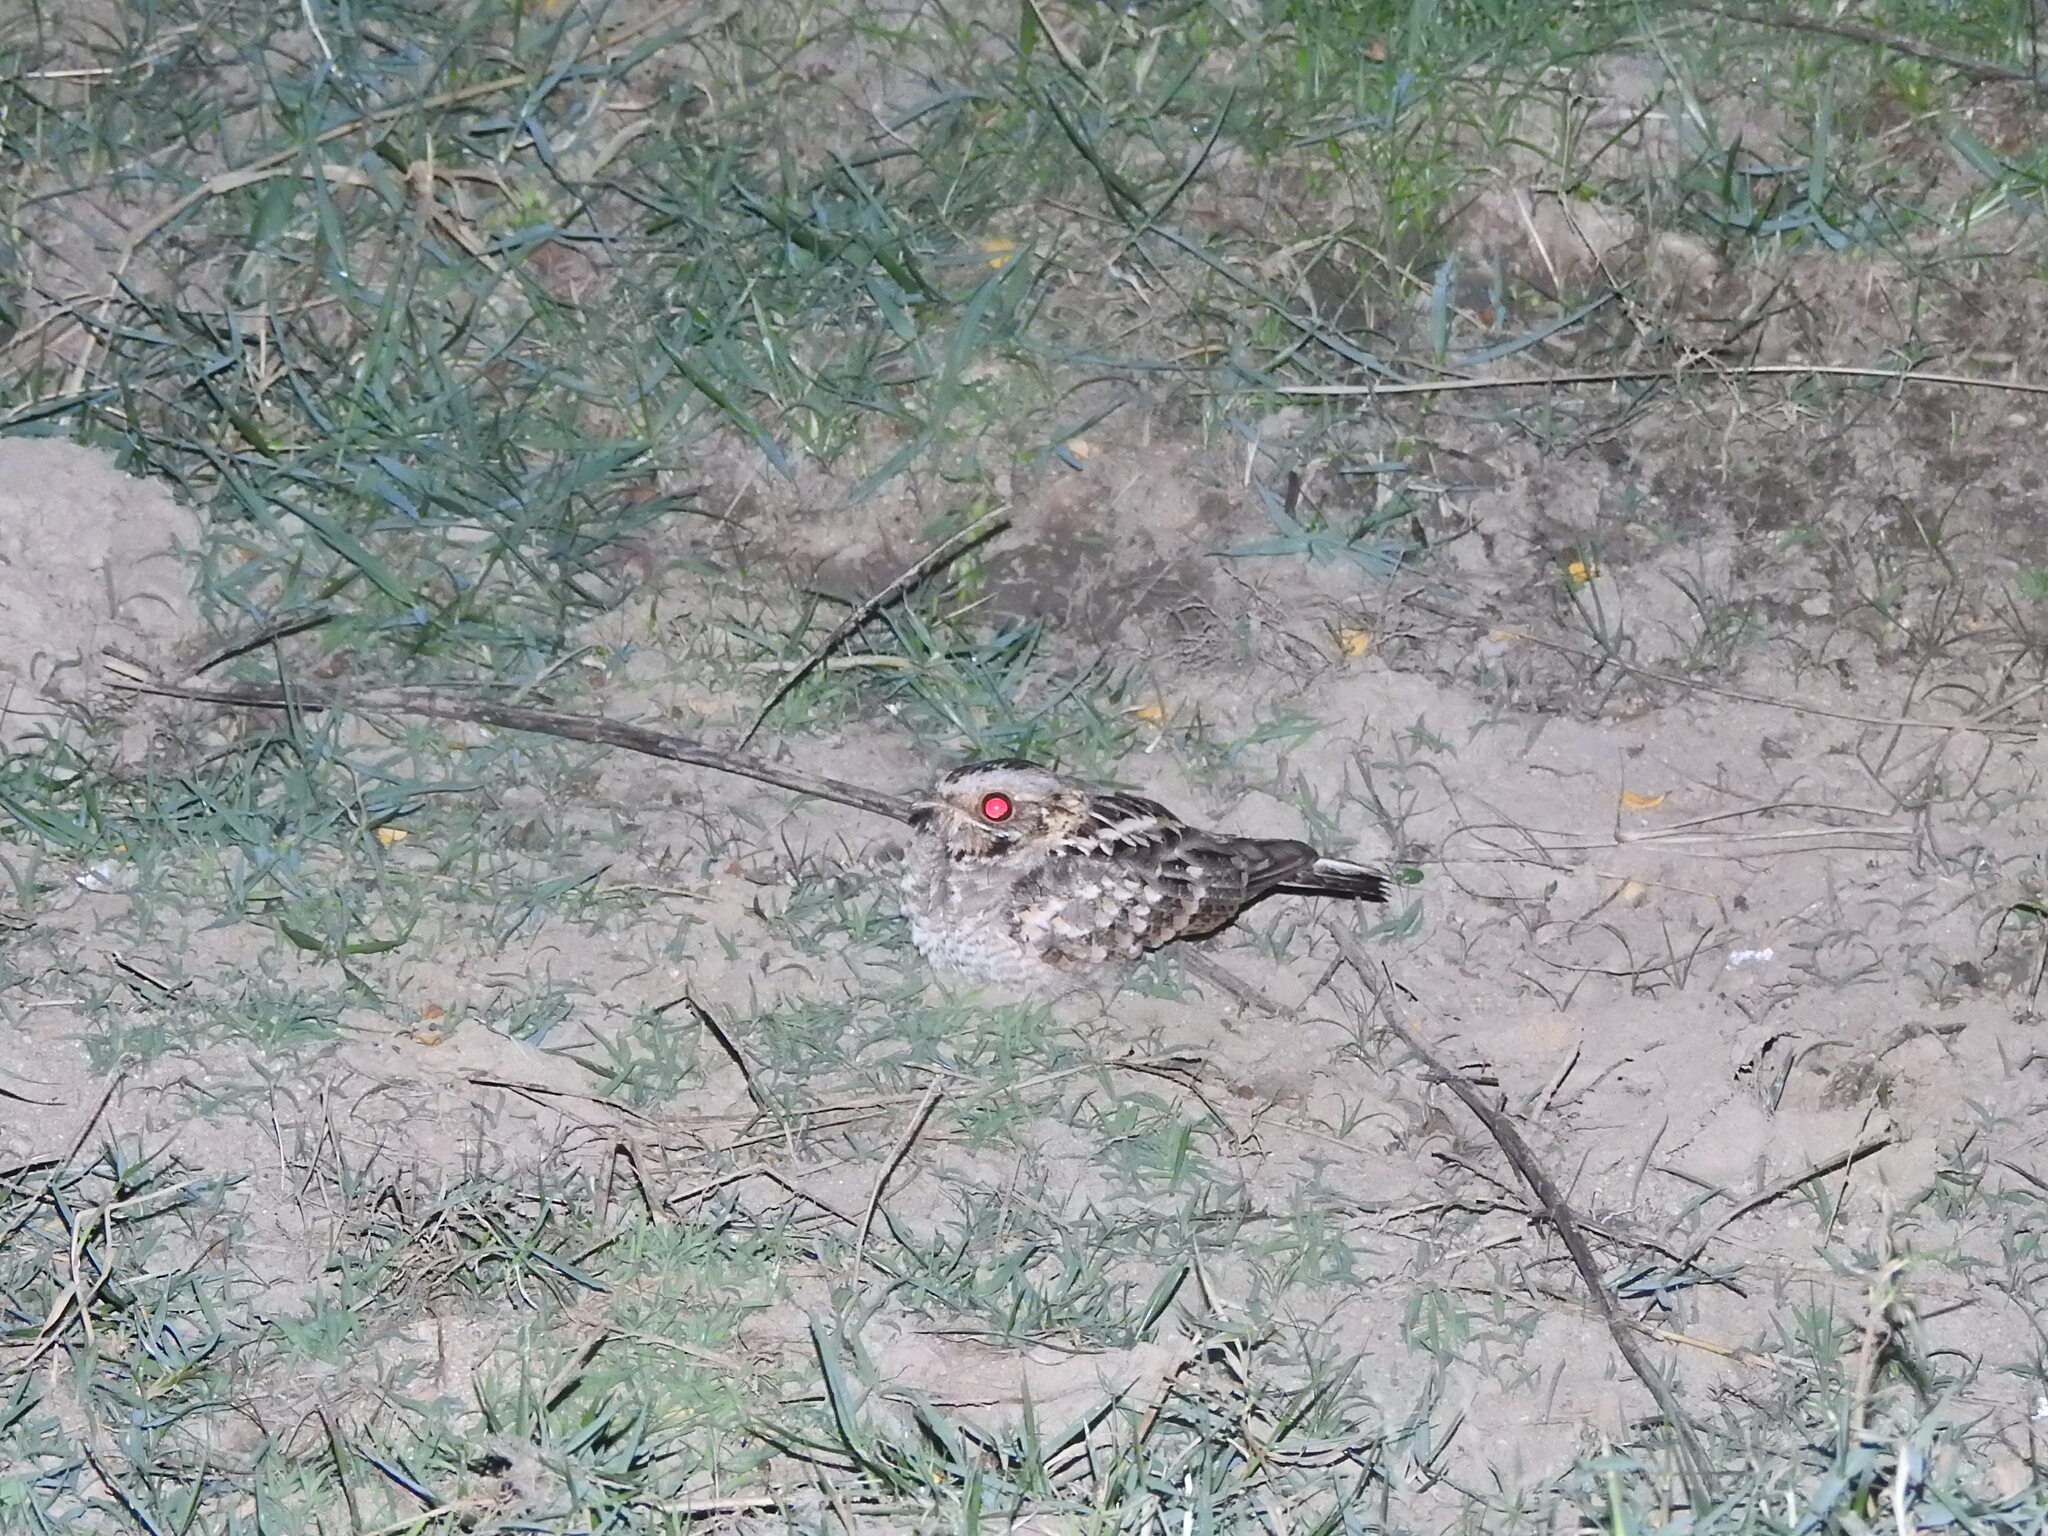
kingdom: Animalia
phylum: Chordata
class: Aves
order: Caprimulgiformes
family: Caprimulgidae
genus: Caprimulgus
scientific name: Caprimulgus asiaticus
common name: Indian nightjar
